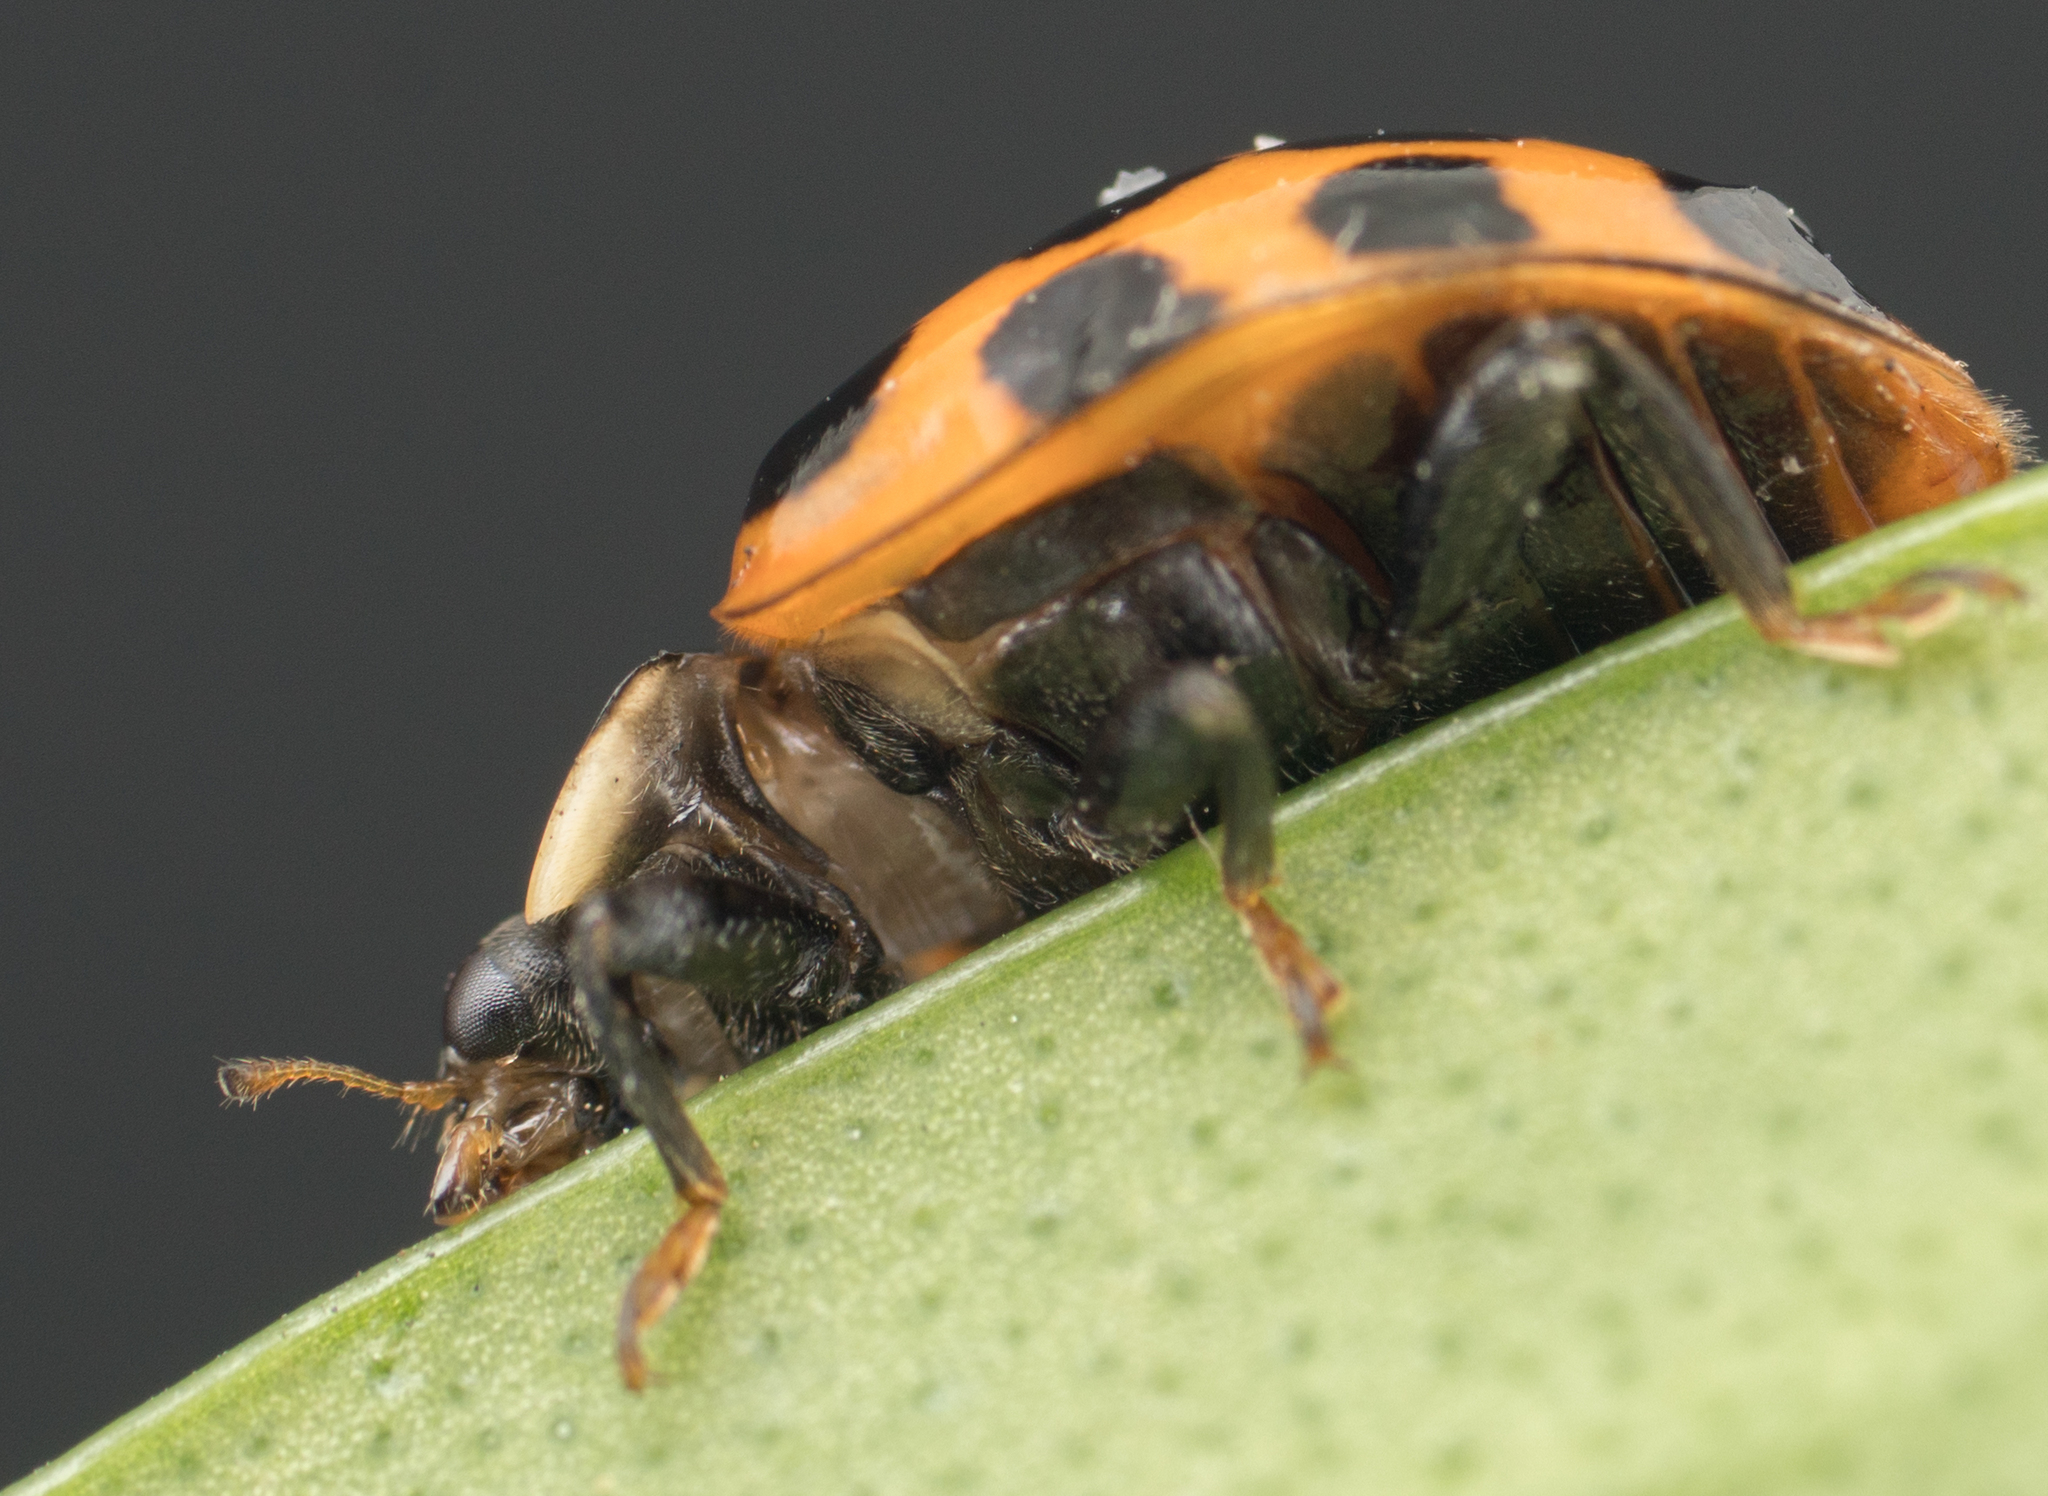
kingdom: Animalia
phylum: Arthropoda
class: Insecta
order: Coleoptera
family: Coccinellidae
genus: Harmonia
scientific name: Harmonia axyridis
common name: Harlequin ladybird
